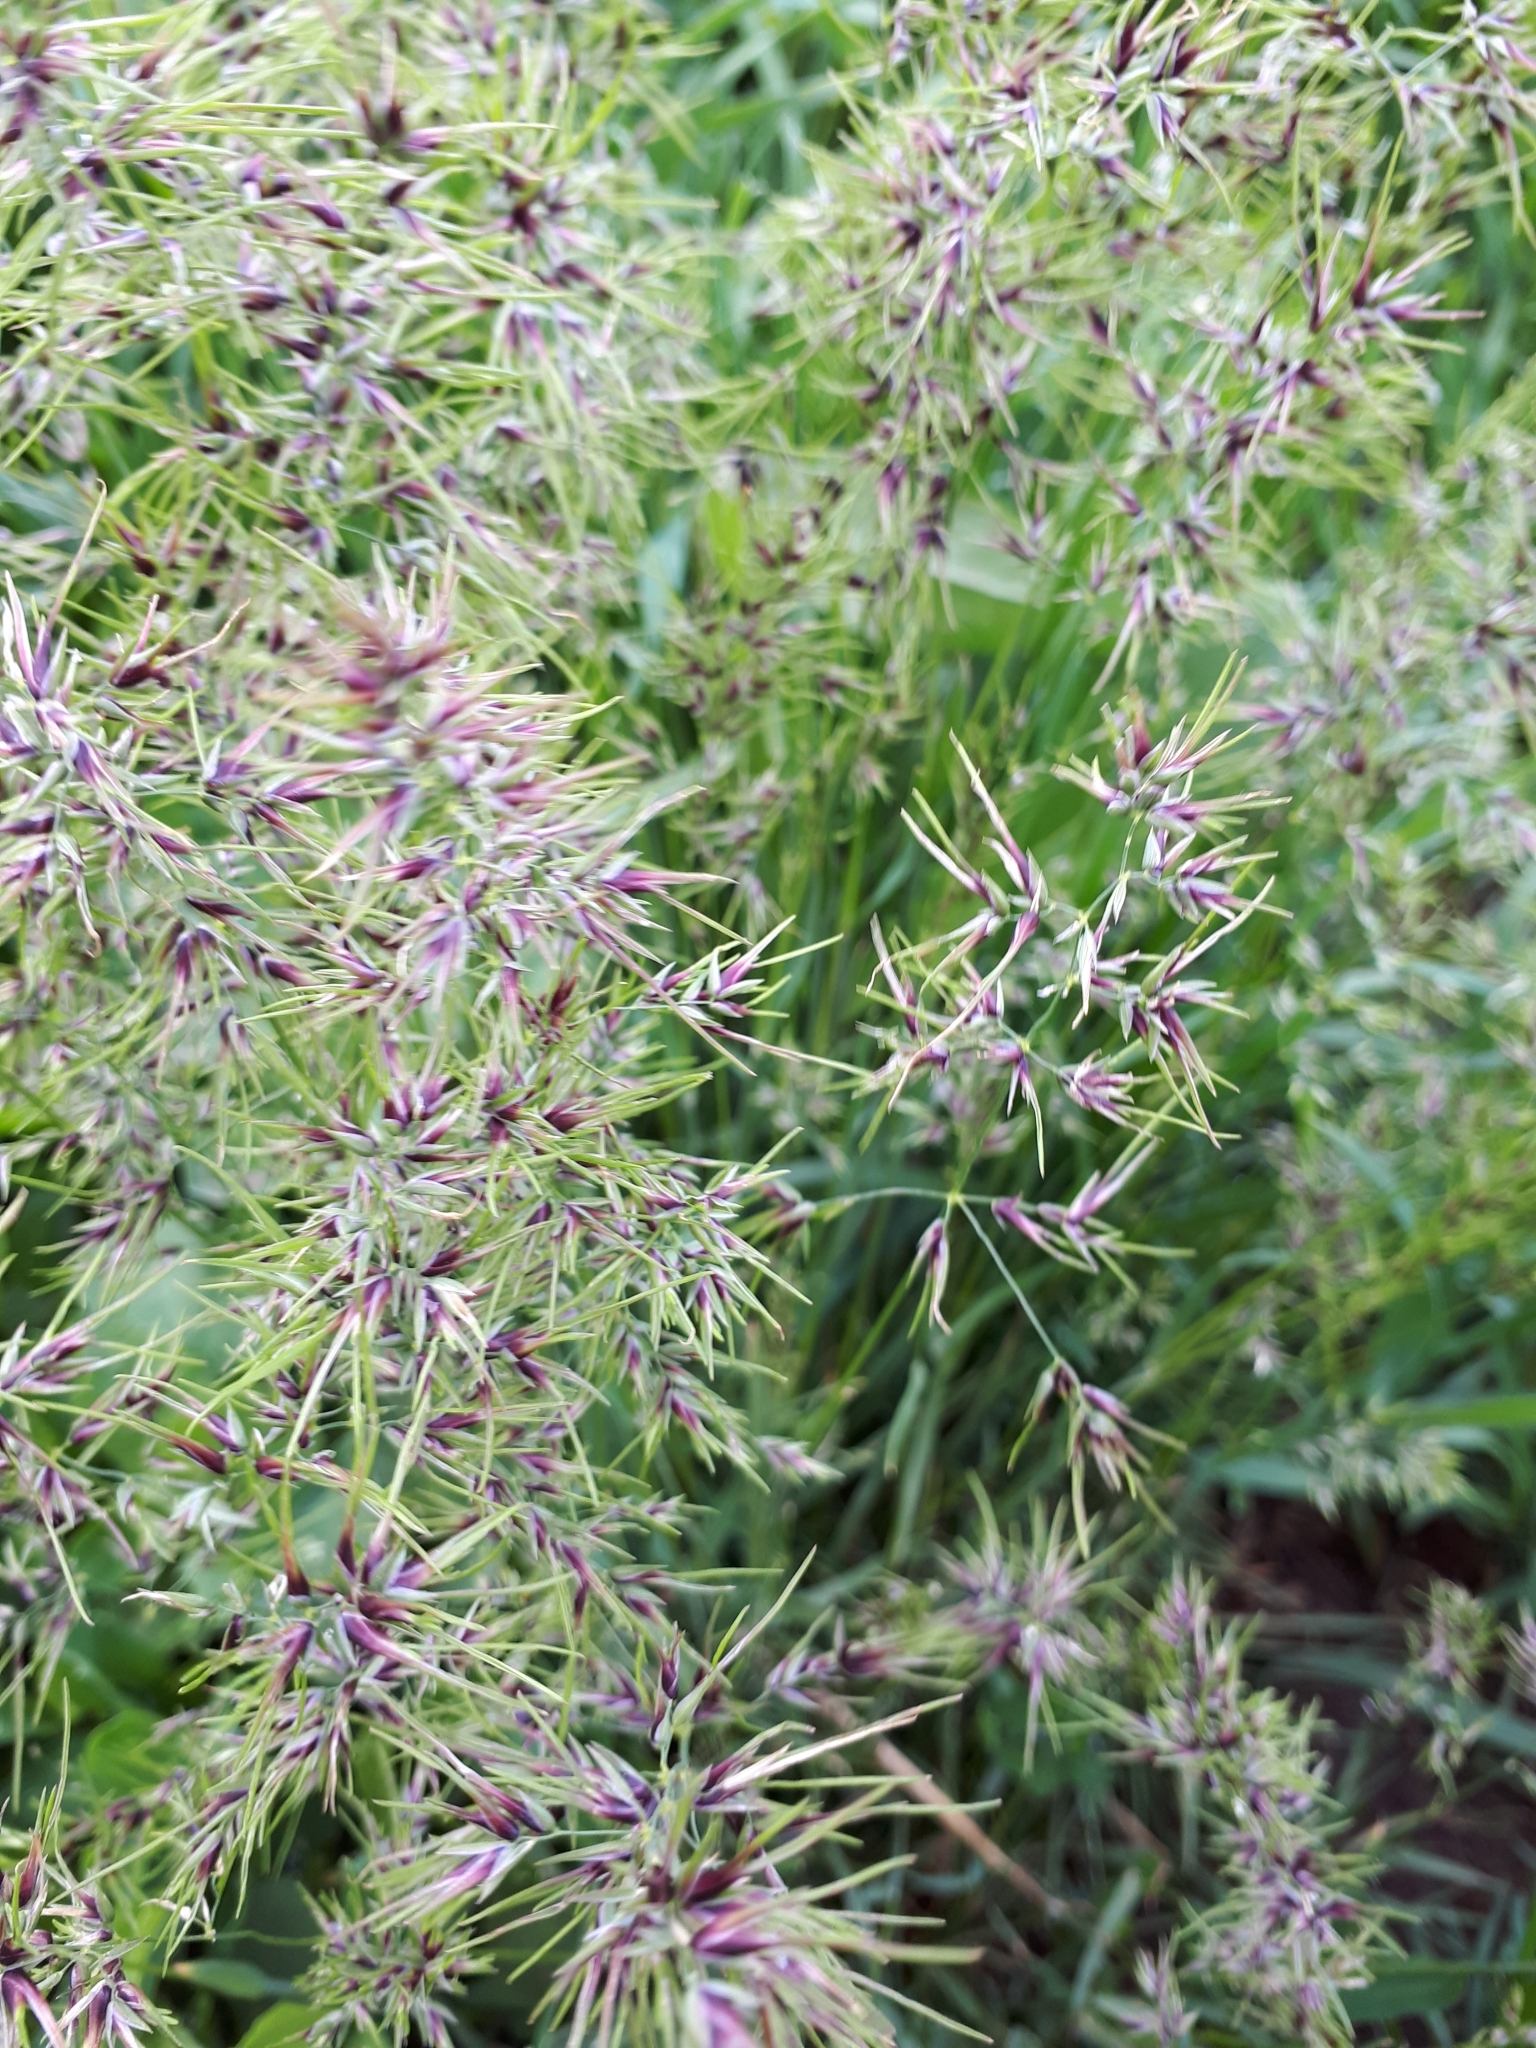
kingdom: Plantae
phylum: Tracheophyta
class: Liliopsida
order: Poales
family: Poaceae
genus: Poa
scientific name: Poa bulbosa
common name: Bulbous bluegrass
